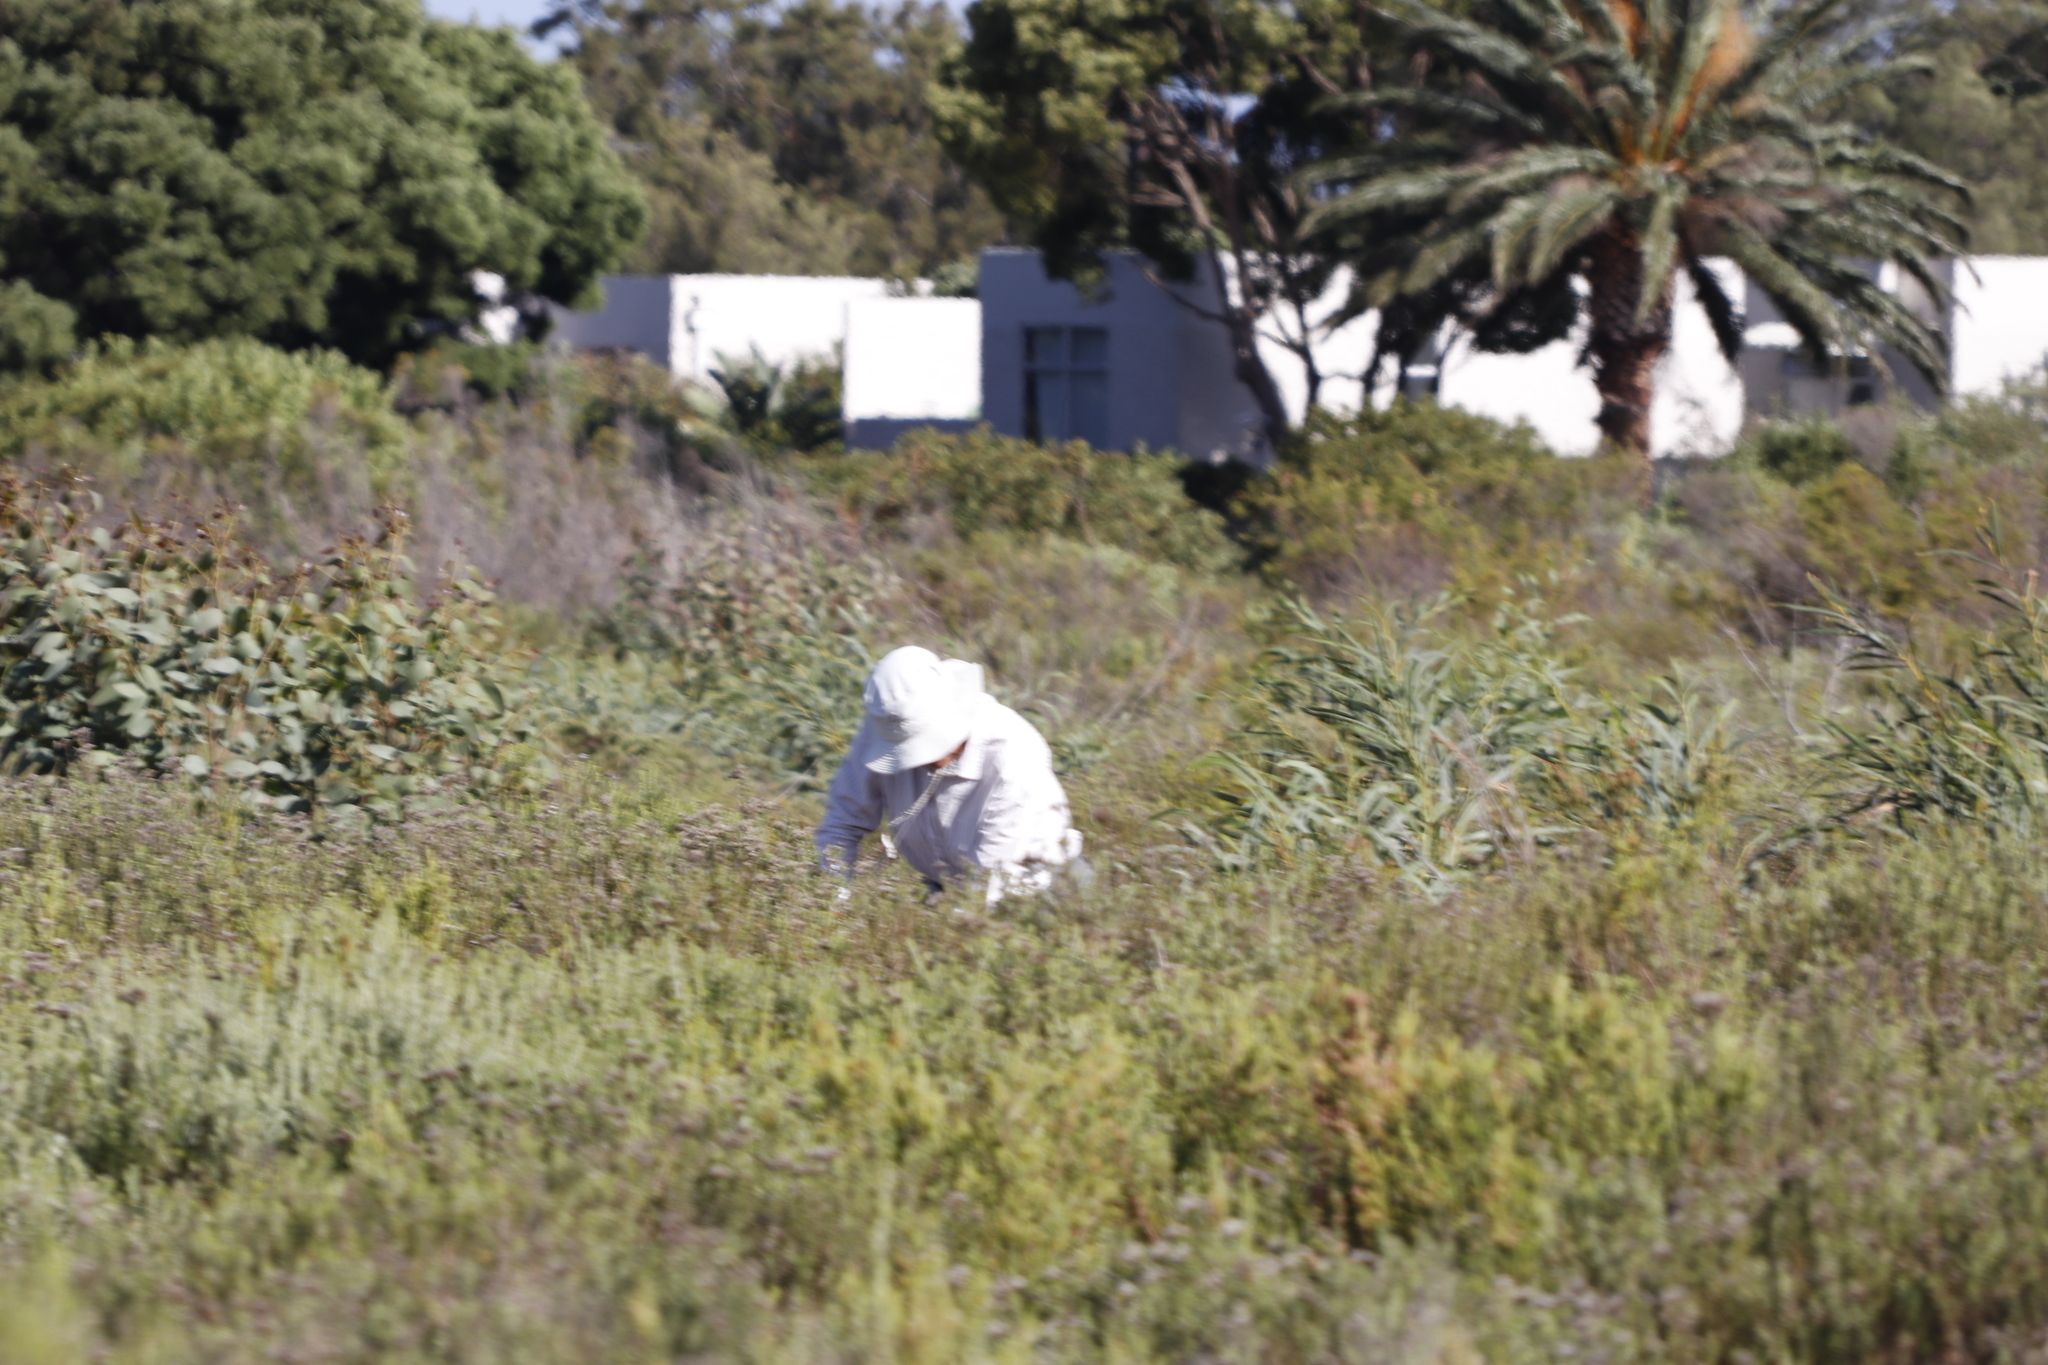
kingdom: Plantae
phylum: Tracheophyta
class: Magnoliopsida
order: Fabales
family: Fabaceae
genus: Acacia
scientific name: Acacia saligna
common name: Orange wattle
